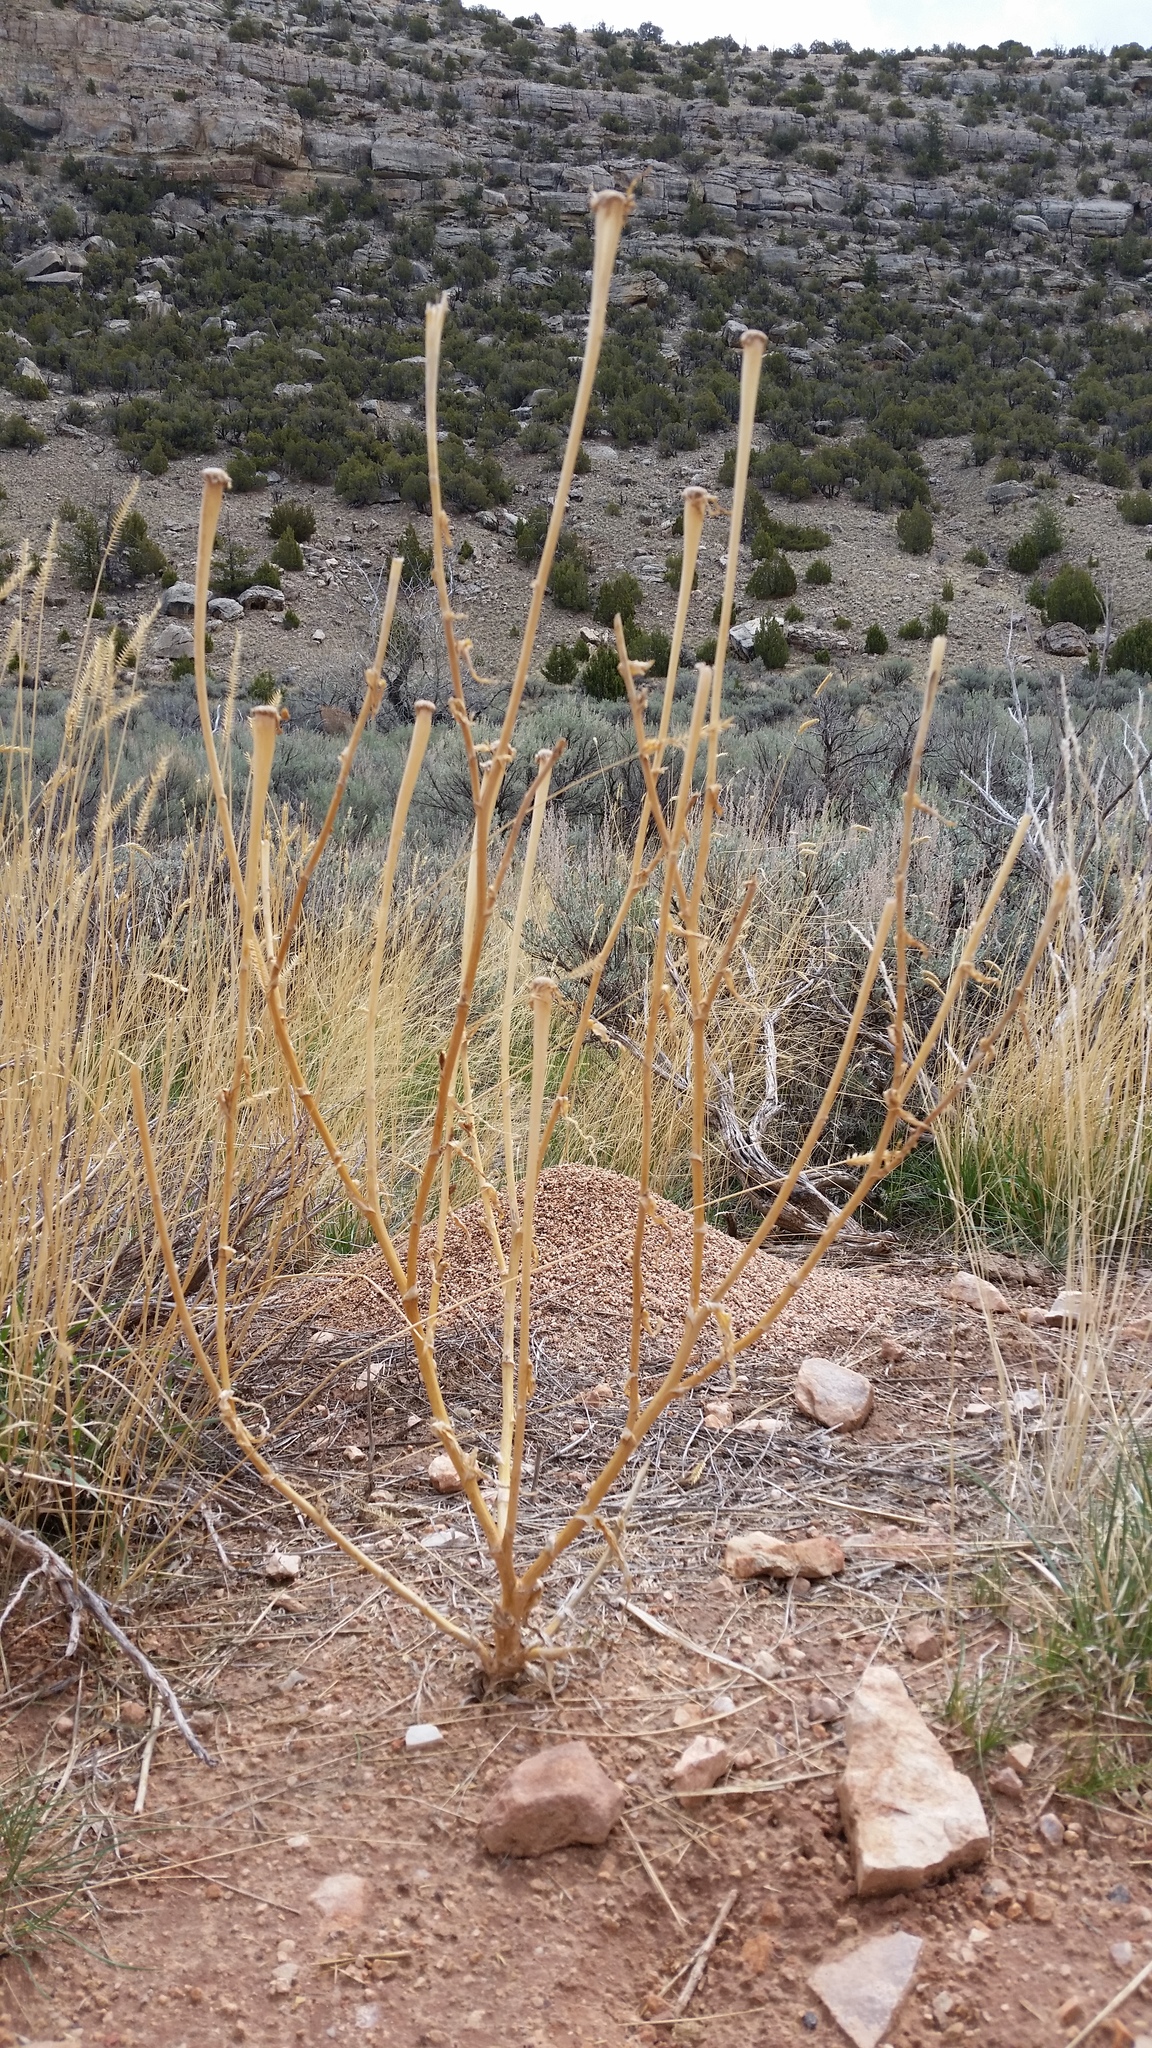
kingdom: Plantae
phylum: Tracheophyta
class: Magnoliopsida
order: Asterales
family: Asteraceae
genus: Tragopogon
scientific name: Tragopogon dubius
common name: Yellow salsify
